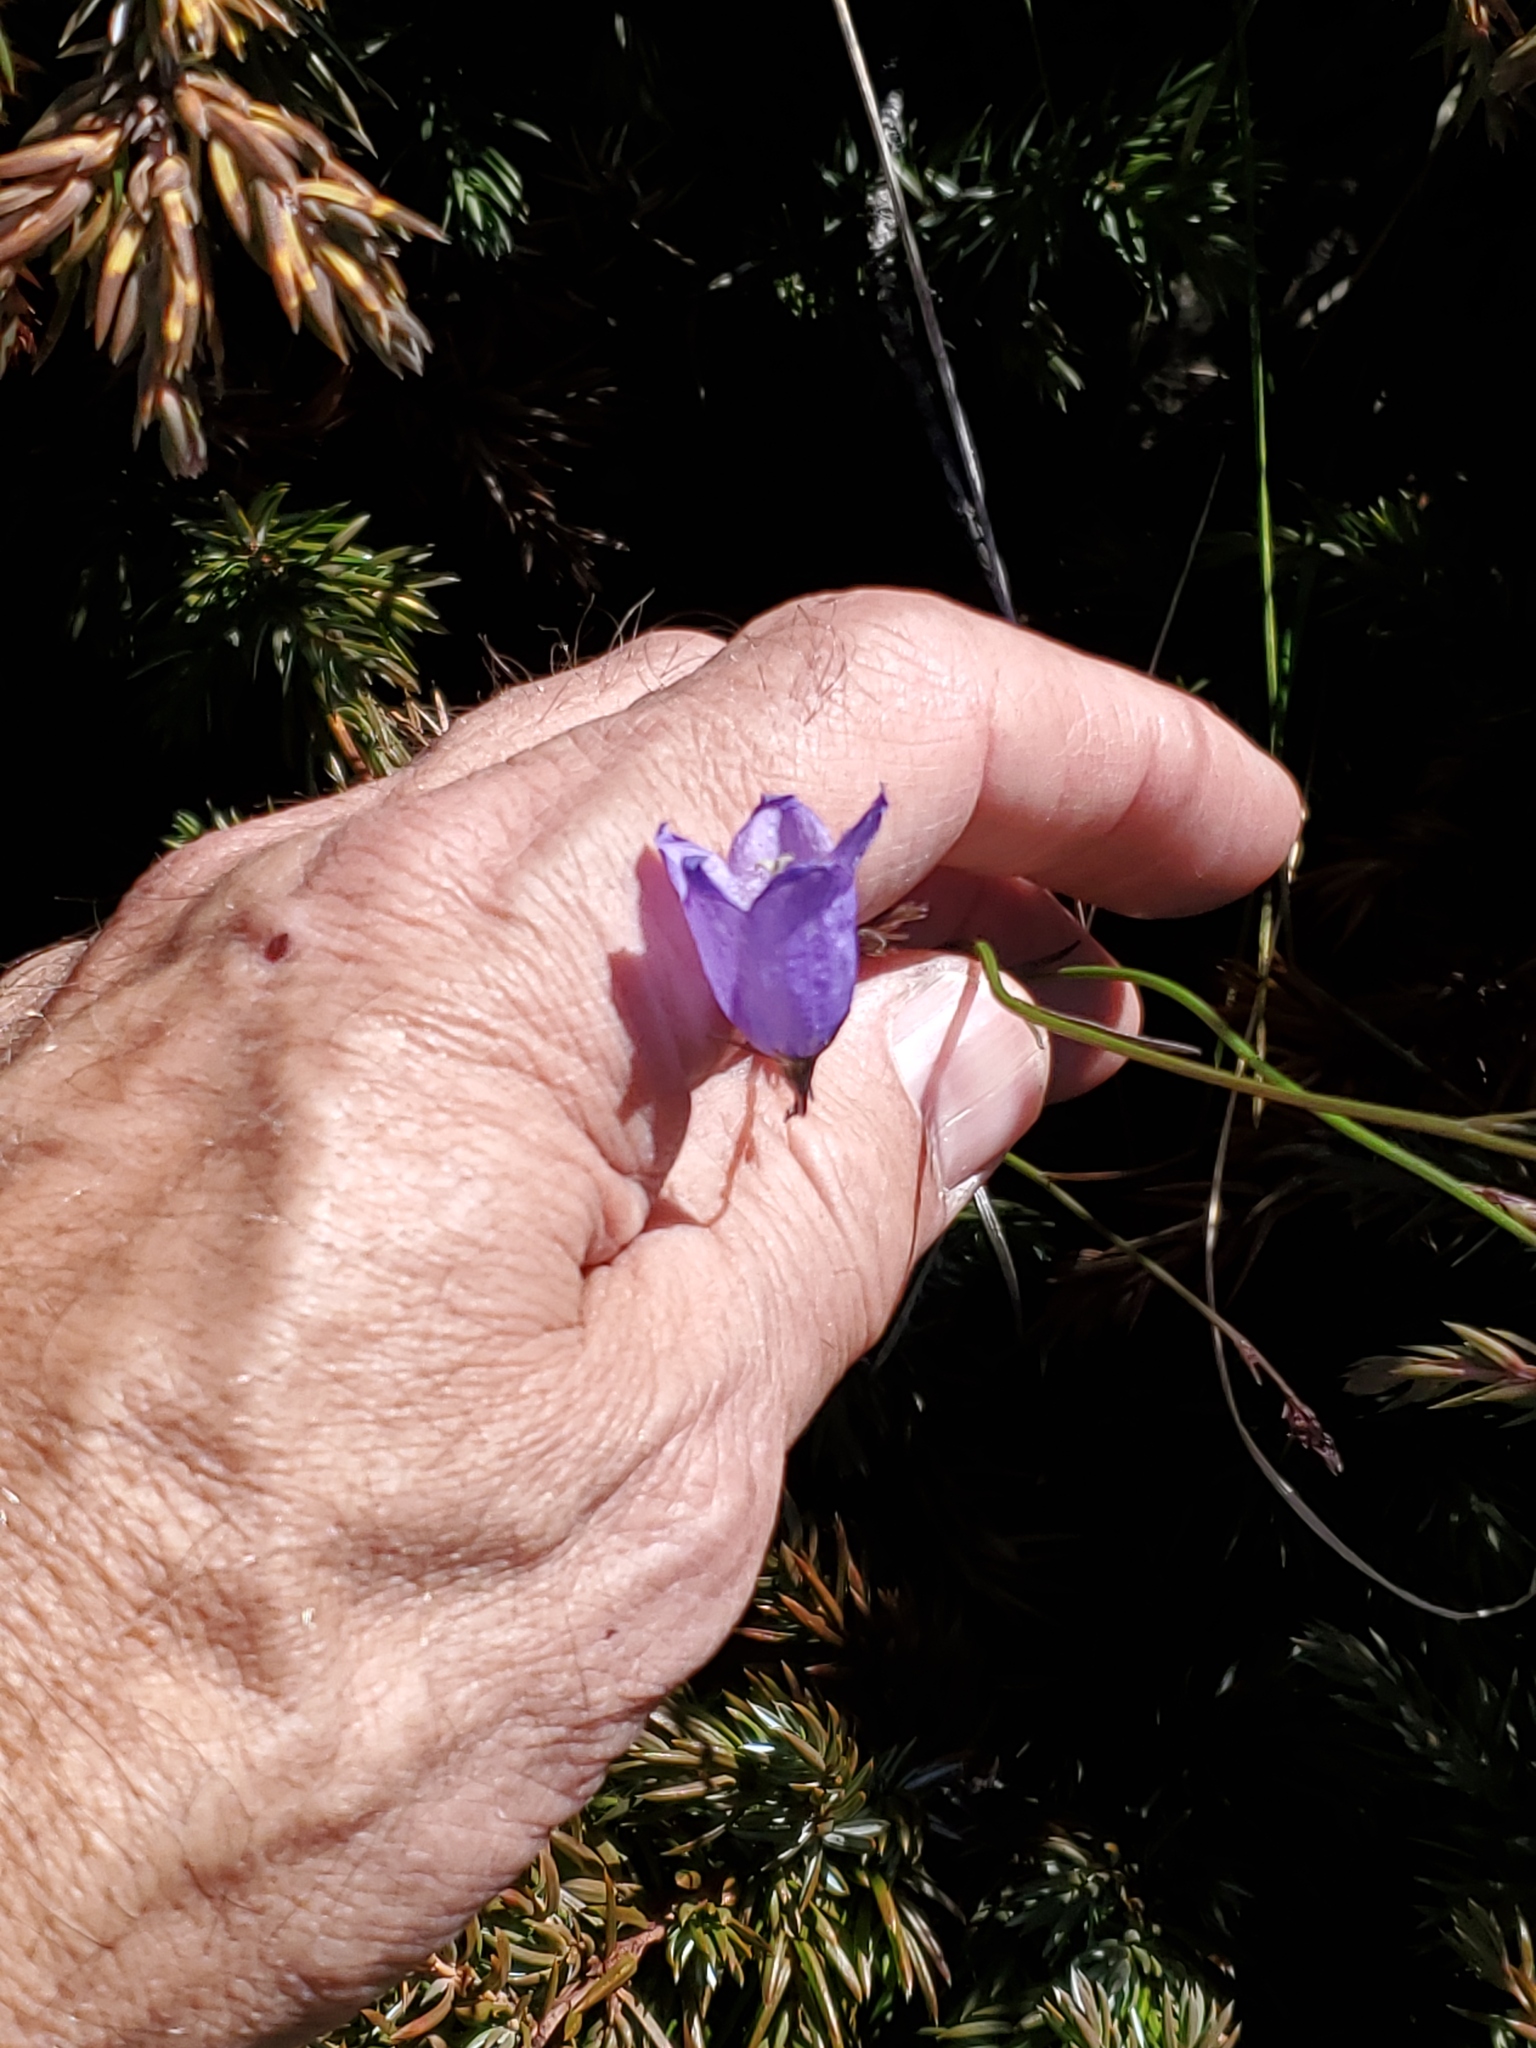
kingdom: Plantae
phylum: Tracheophyta
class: Magnoliopsida
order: Asterales
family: Campanulaceae
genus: Campanula
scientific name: Campanula petiolata
